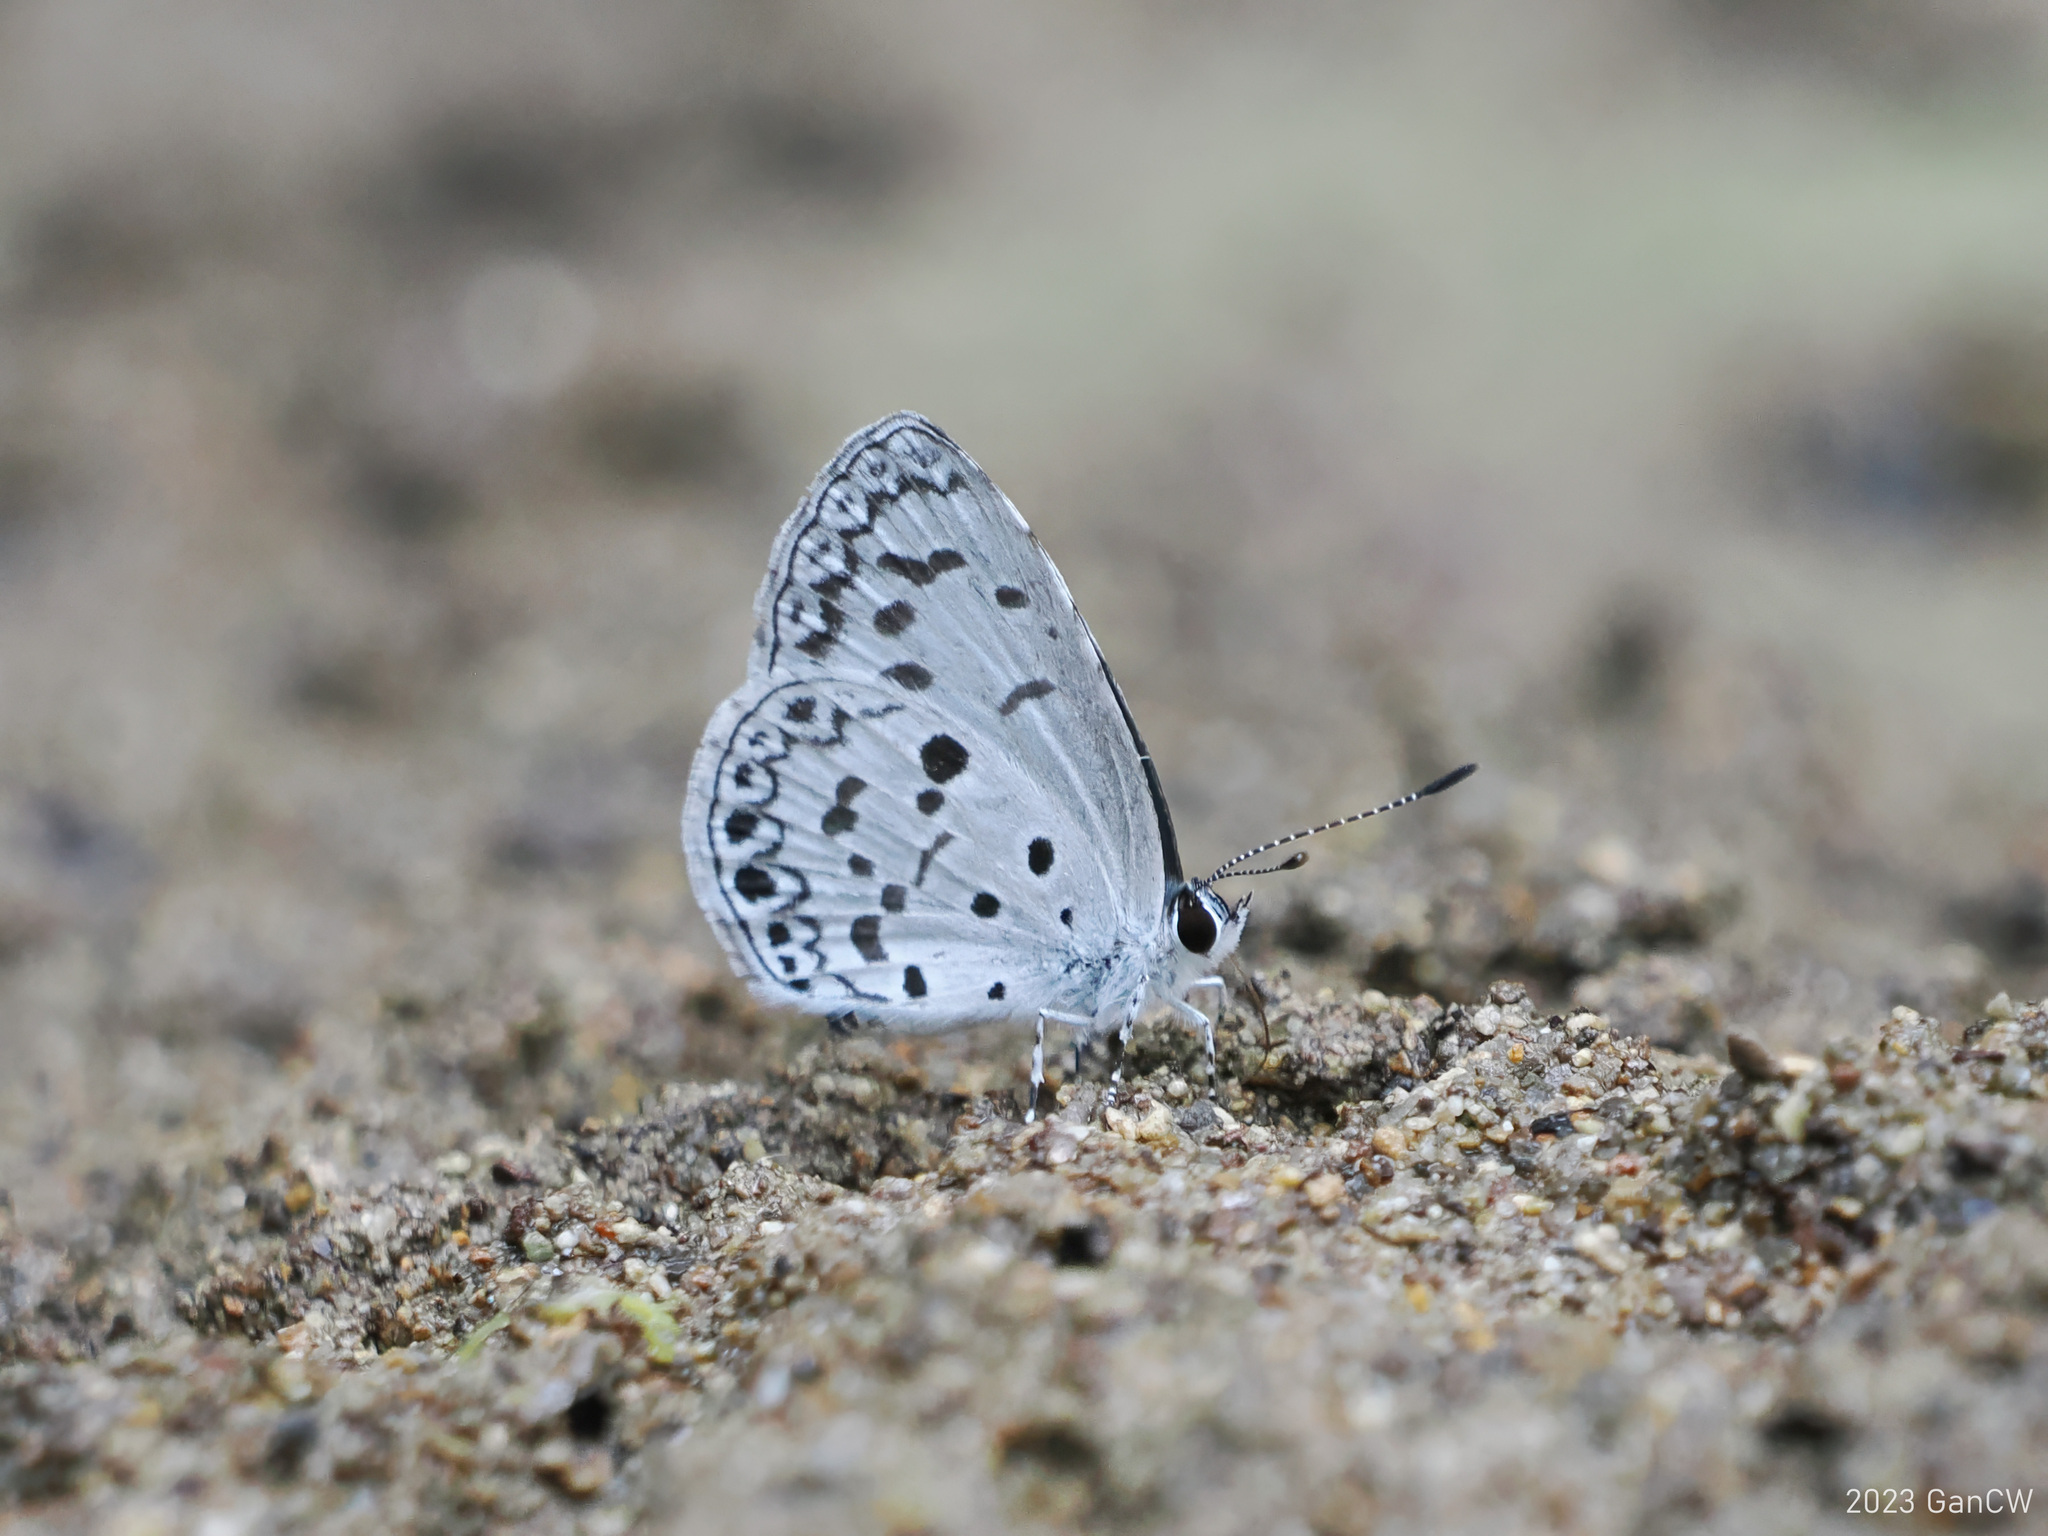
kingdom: Animalia
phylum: Arthropoda
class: Insecta
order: Lepidoptera
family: Lycaenidae
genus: Acytolepis
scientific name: Acytolepis puspa
